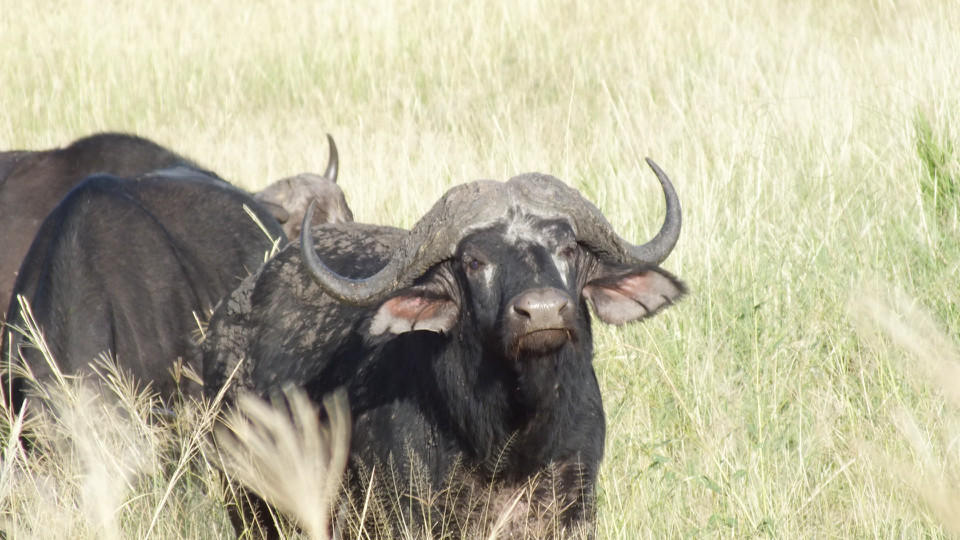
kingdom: Animalia
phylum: Chordata
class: Mammalia
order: Artiodactyla
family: Bovidae
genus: Syncerus
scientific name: Syncerus caffer
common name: African buffalo
